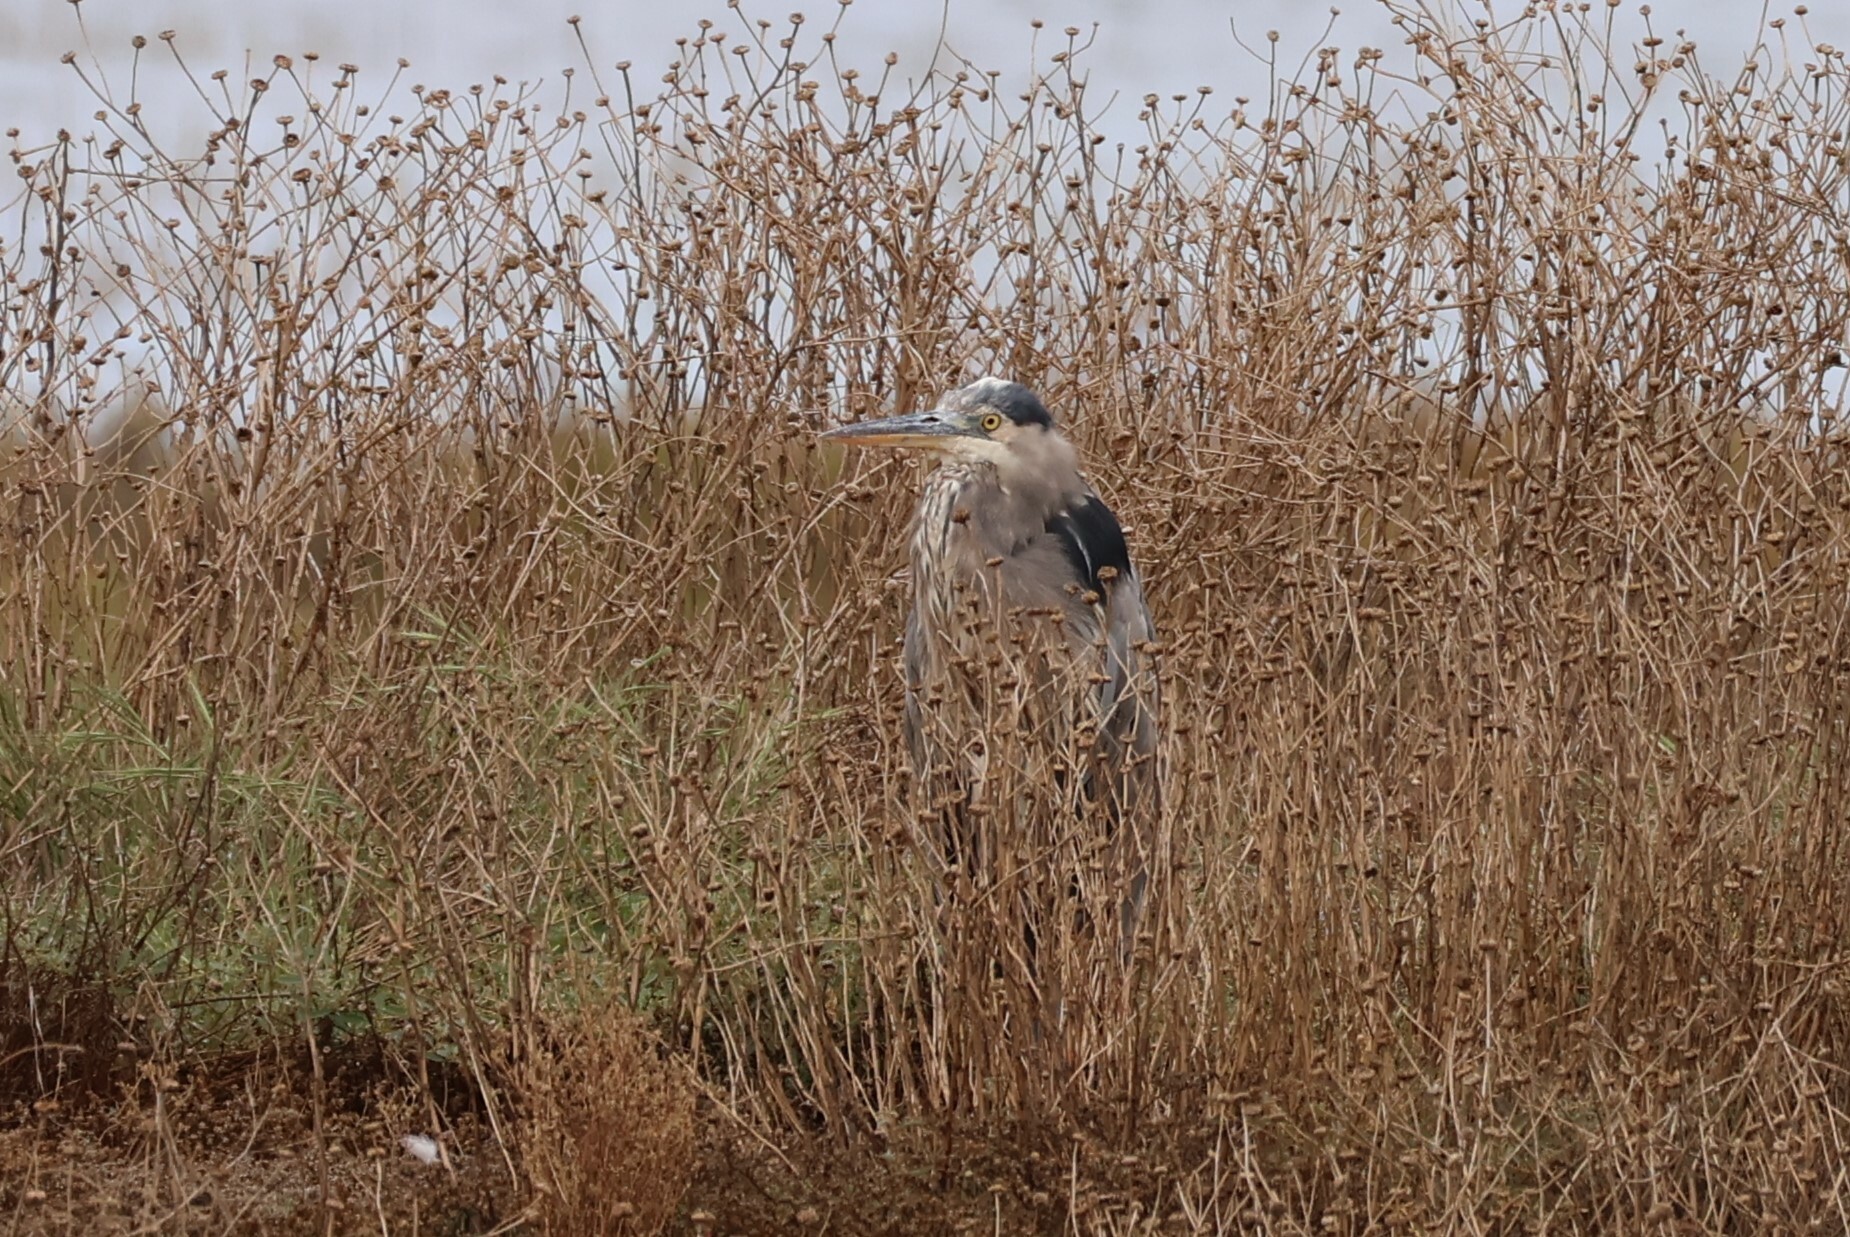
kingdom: Animalia
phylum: Chordata
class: Aves
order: Pelecaniformes
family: Ardeidae
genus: Ardea
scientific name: Ardea herodias
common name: Great blue heron
